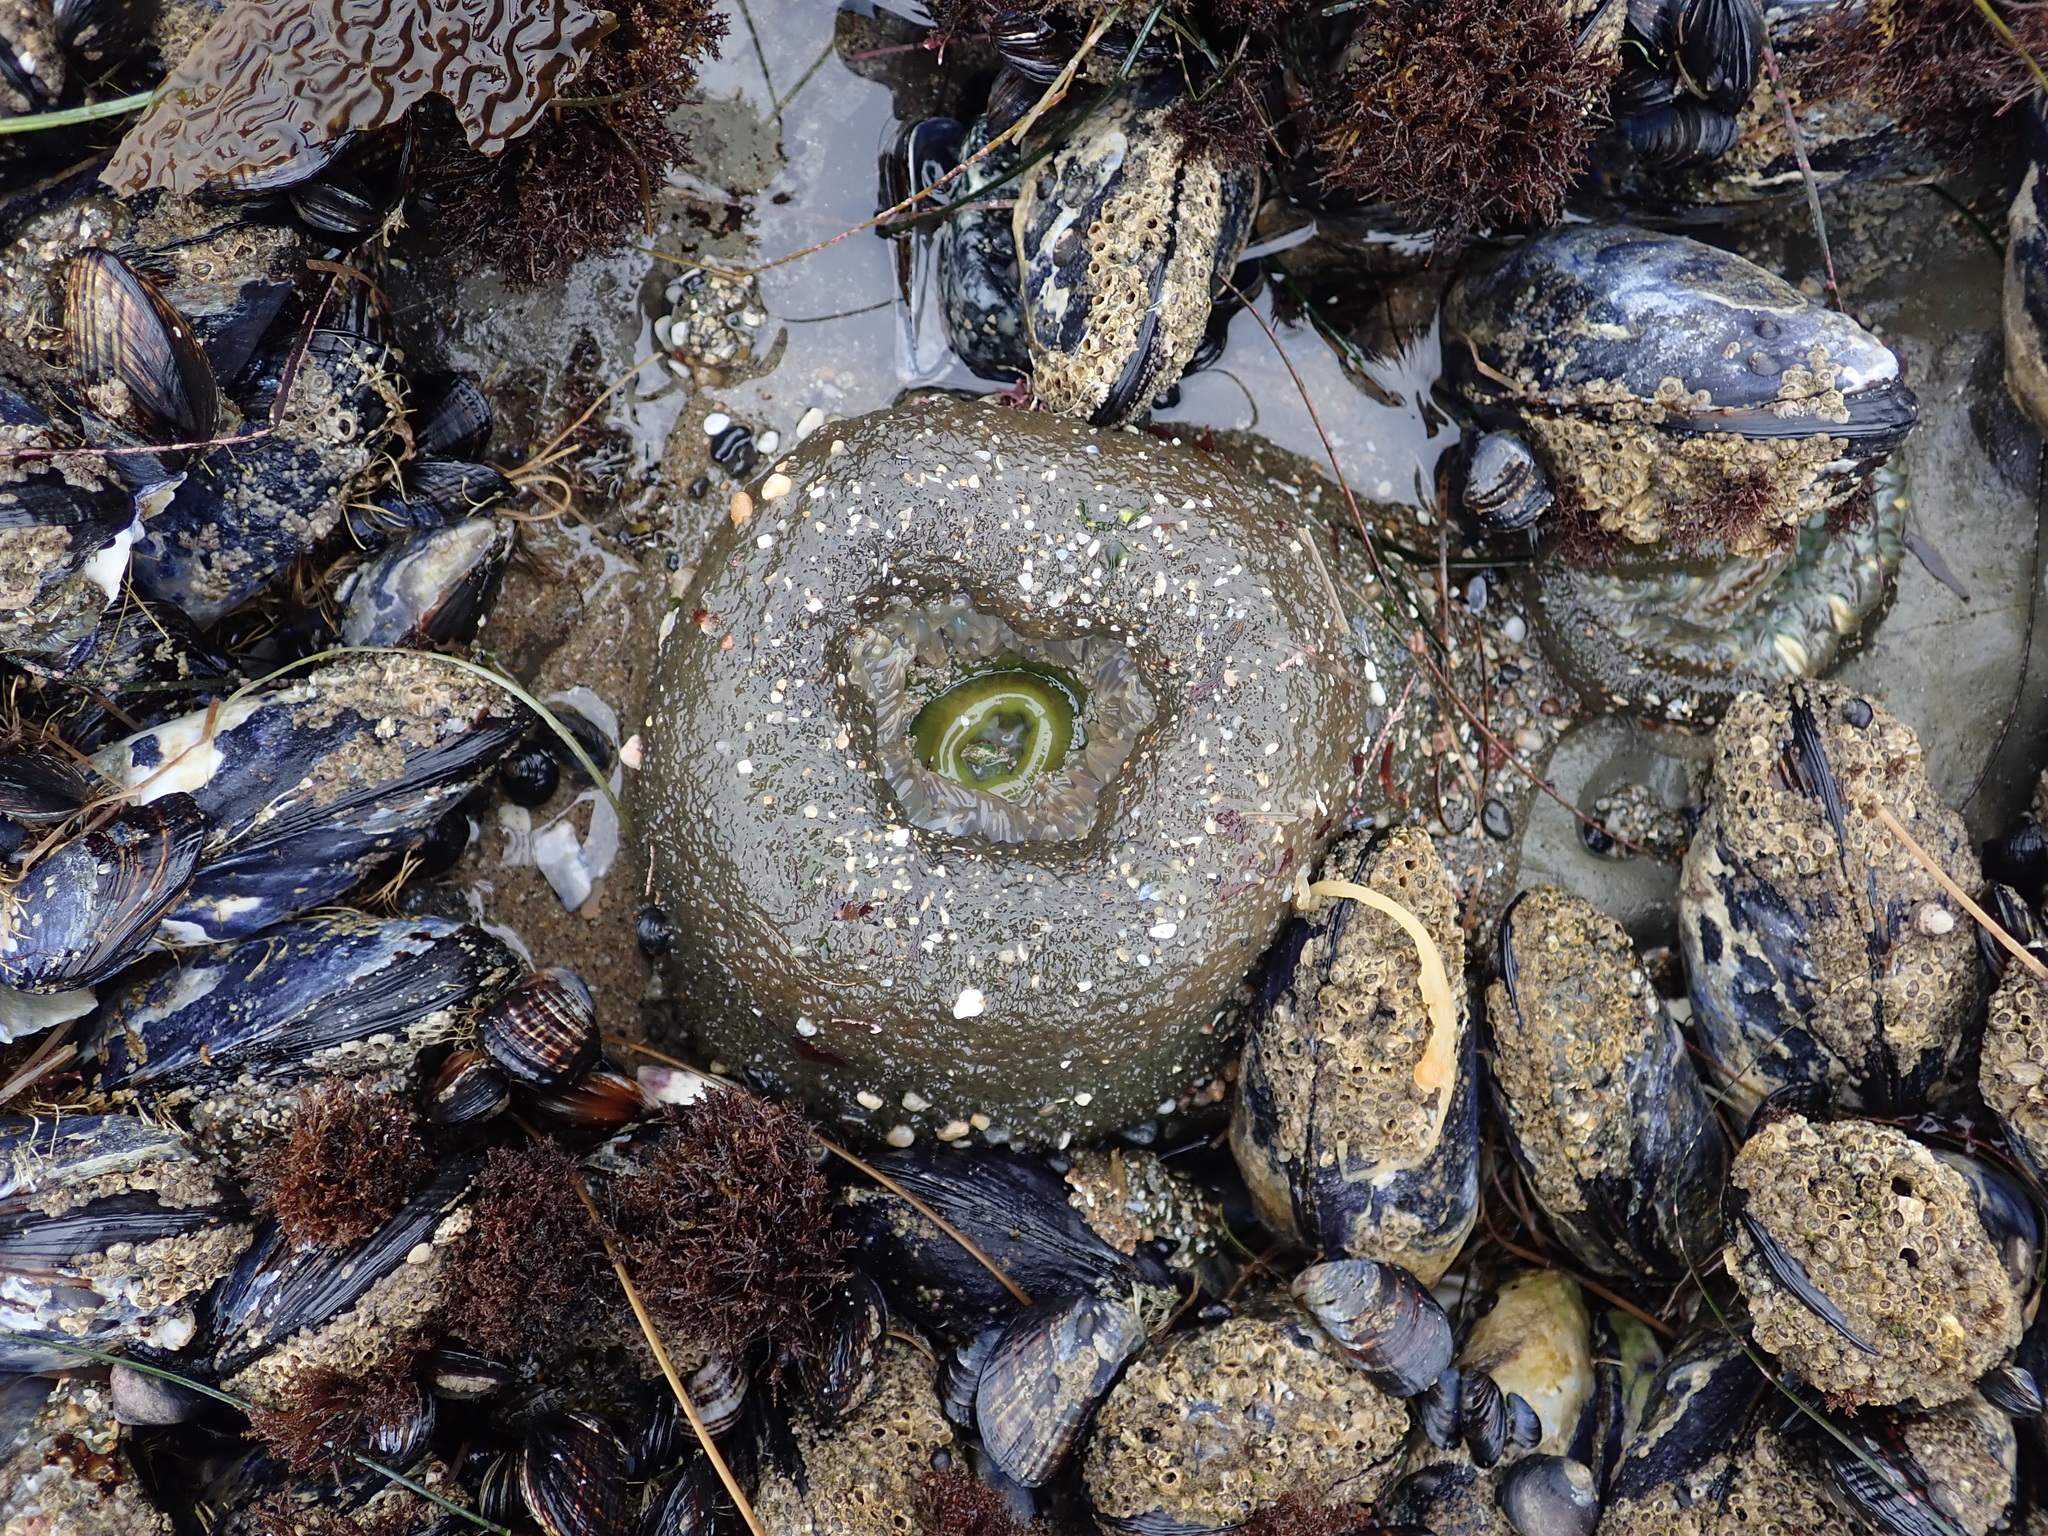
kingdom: Animalia
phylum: Cnidaria
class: Anthozoa
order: Actiniaria
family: Actiniidae
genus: Anthopleura
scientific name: Anthopleura xanthogrammica
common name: Giant green anemone
